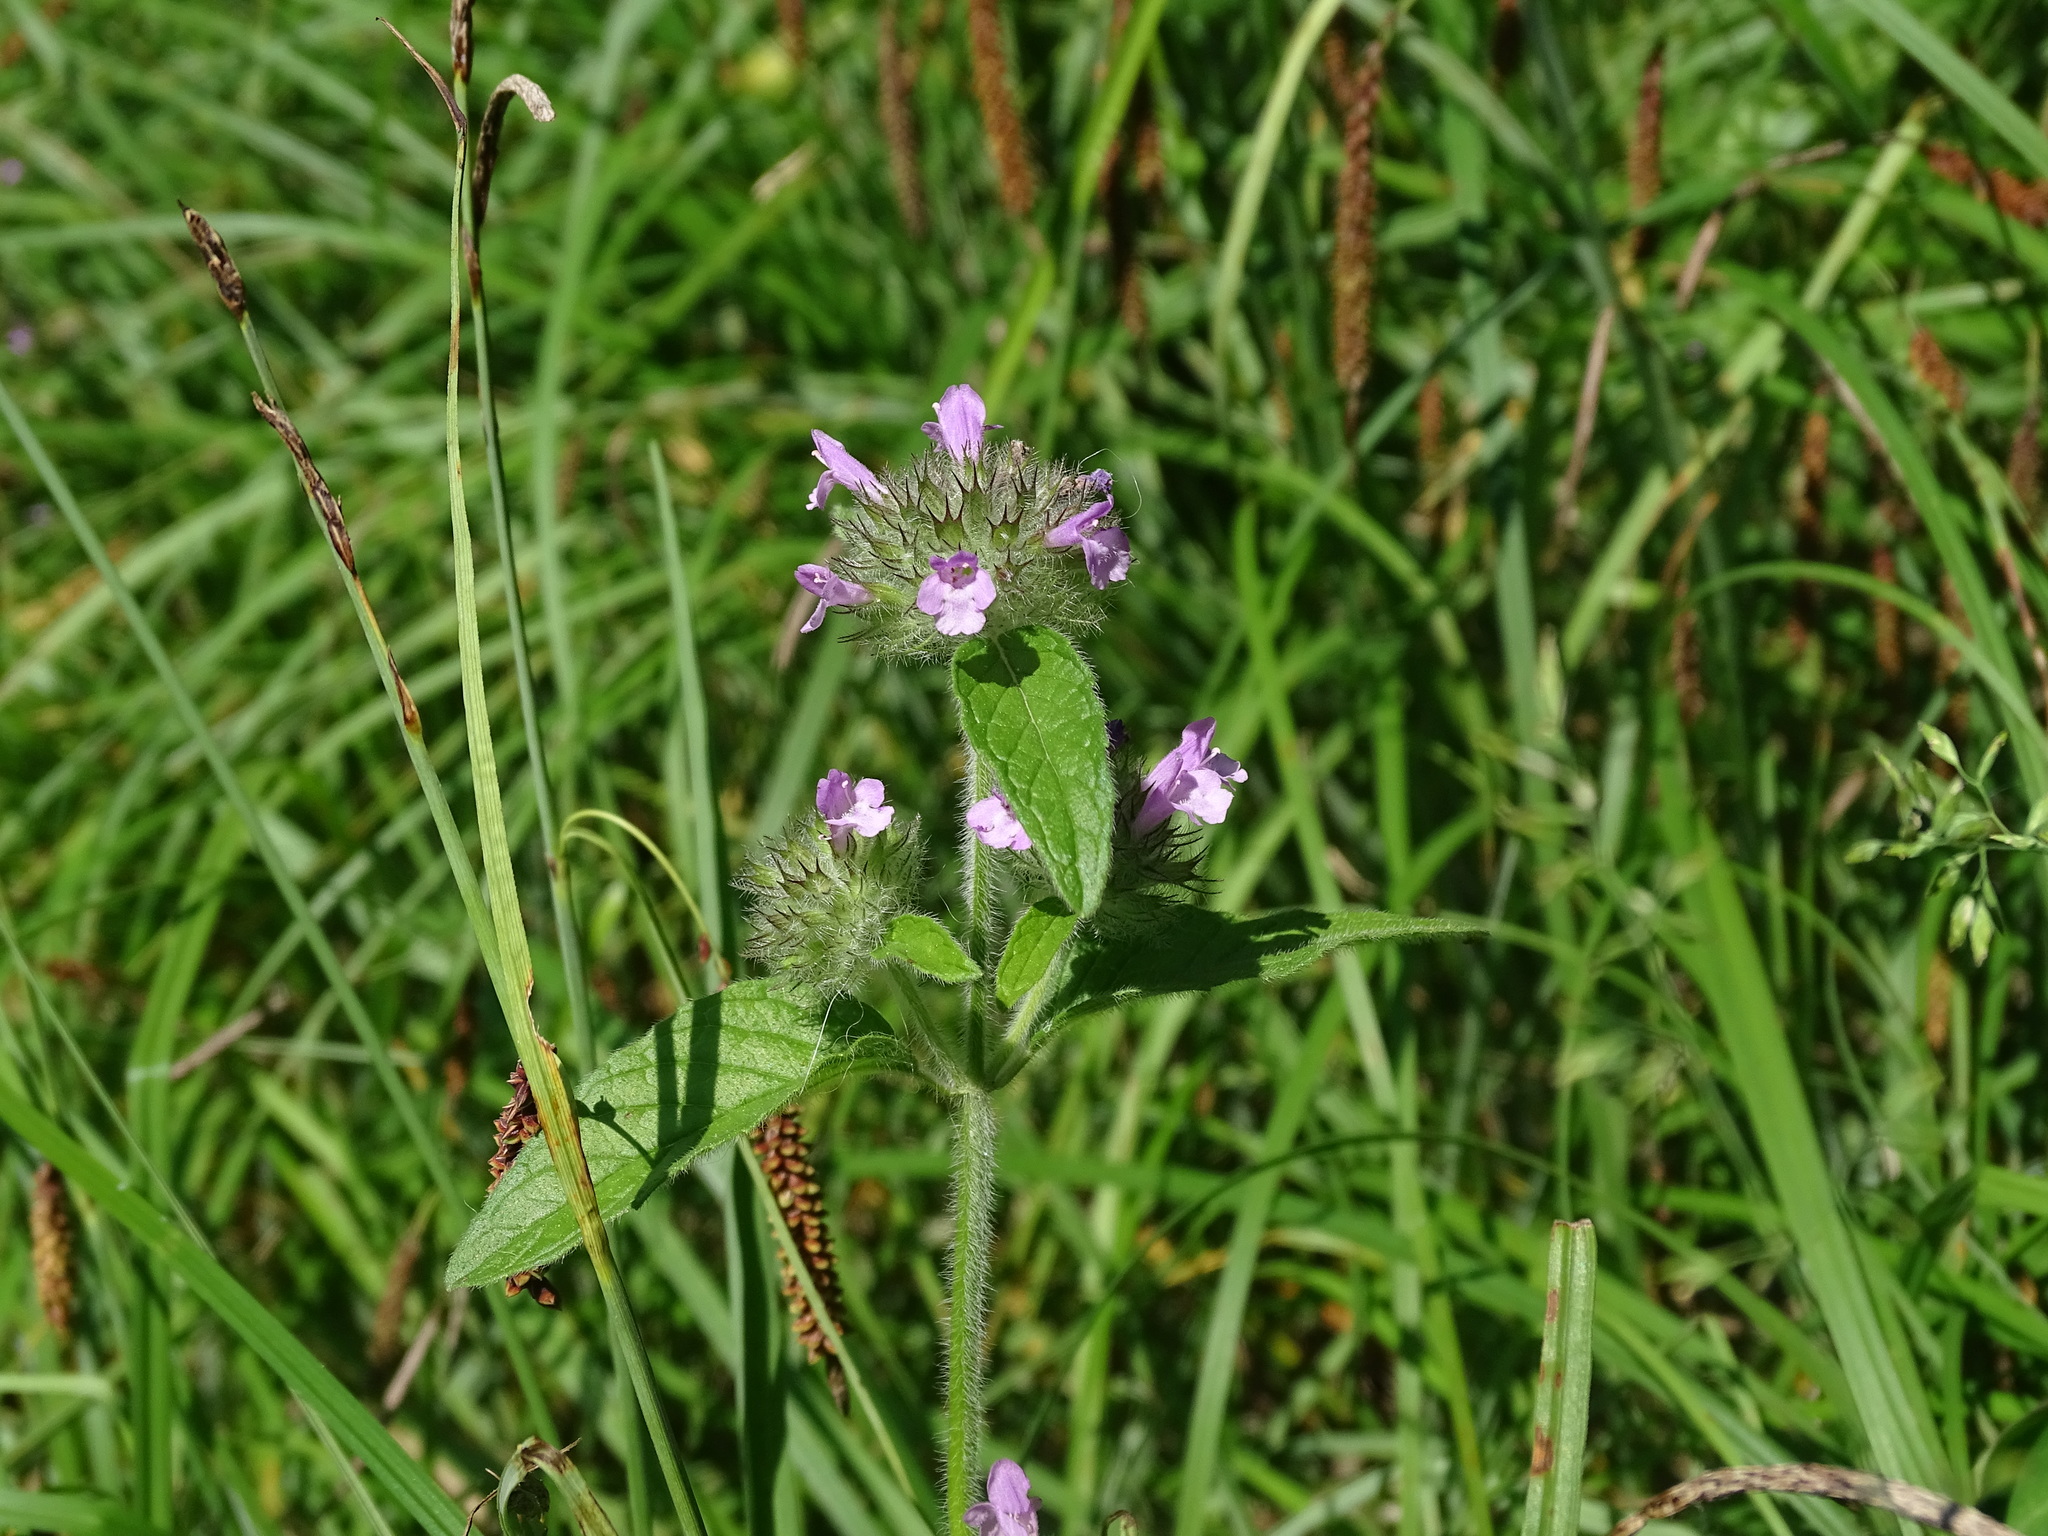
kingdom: Plantae
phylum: Tracheophyta
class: Magnoliopsida
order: Lamiales
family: Lamiaceae
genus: Clinopodium
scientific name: Clinopodium vulgare
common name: Wild basil
